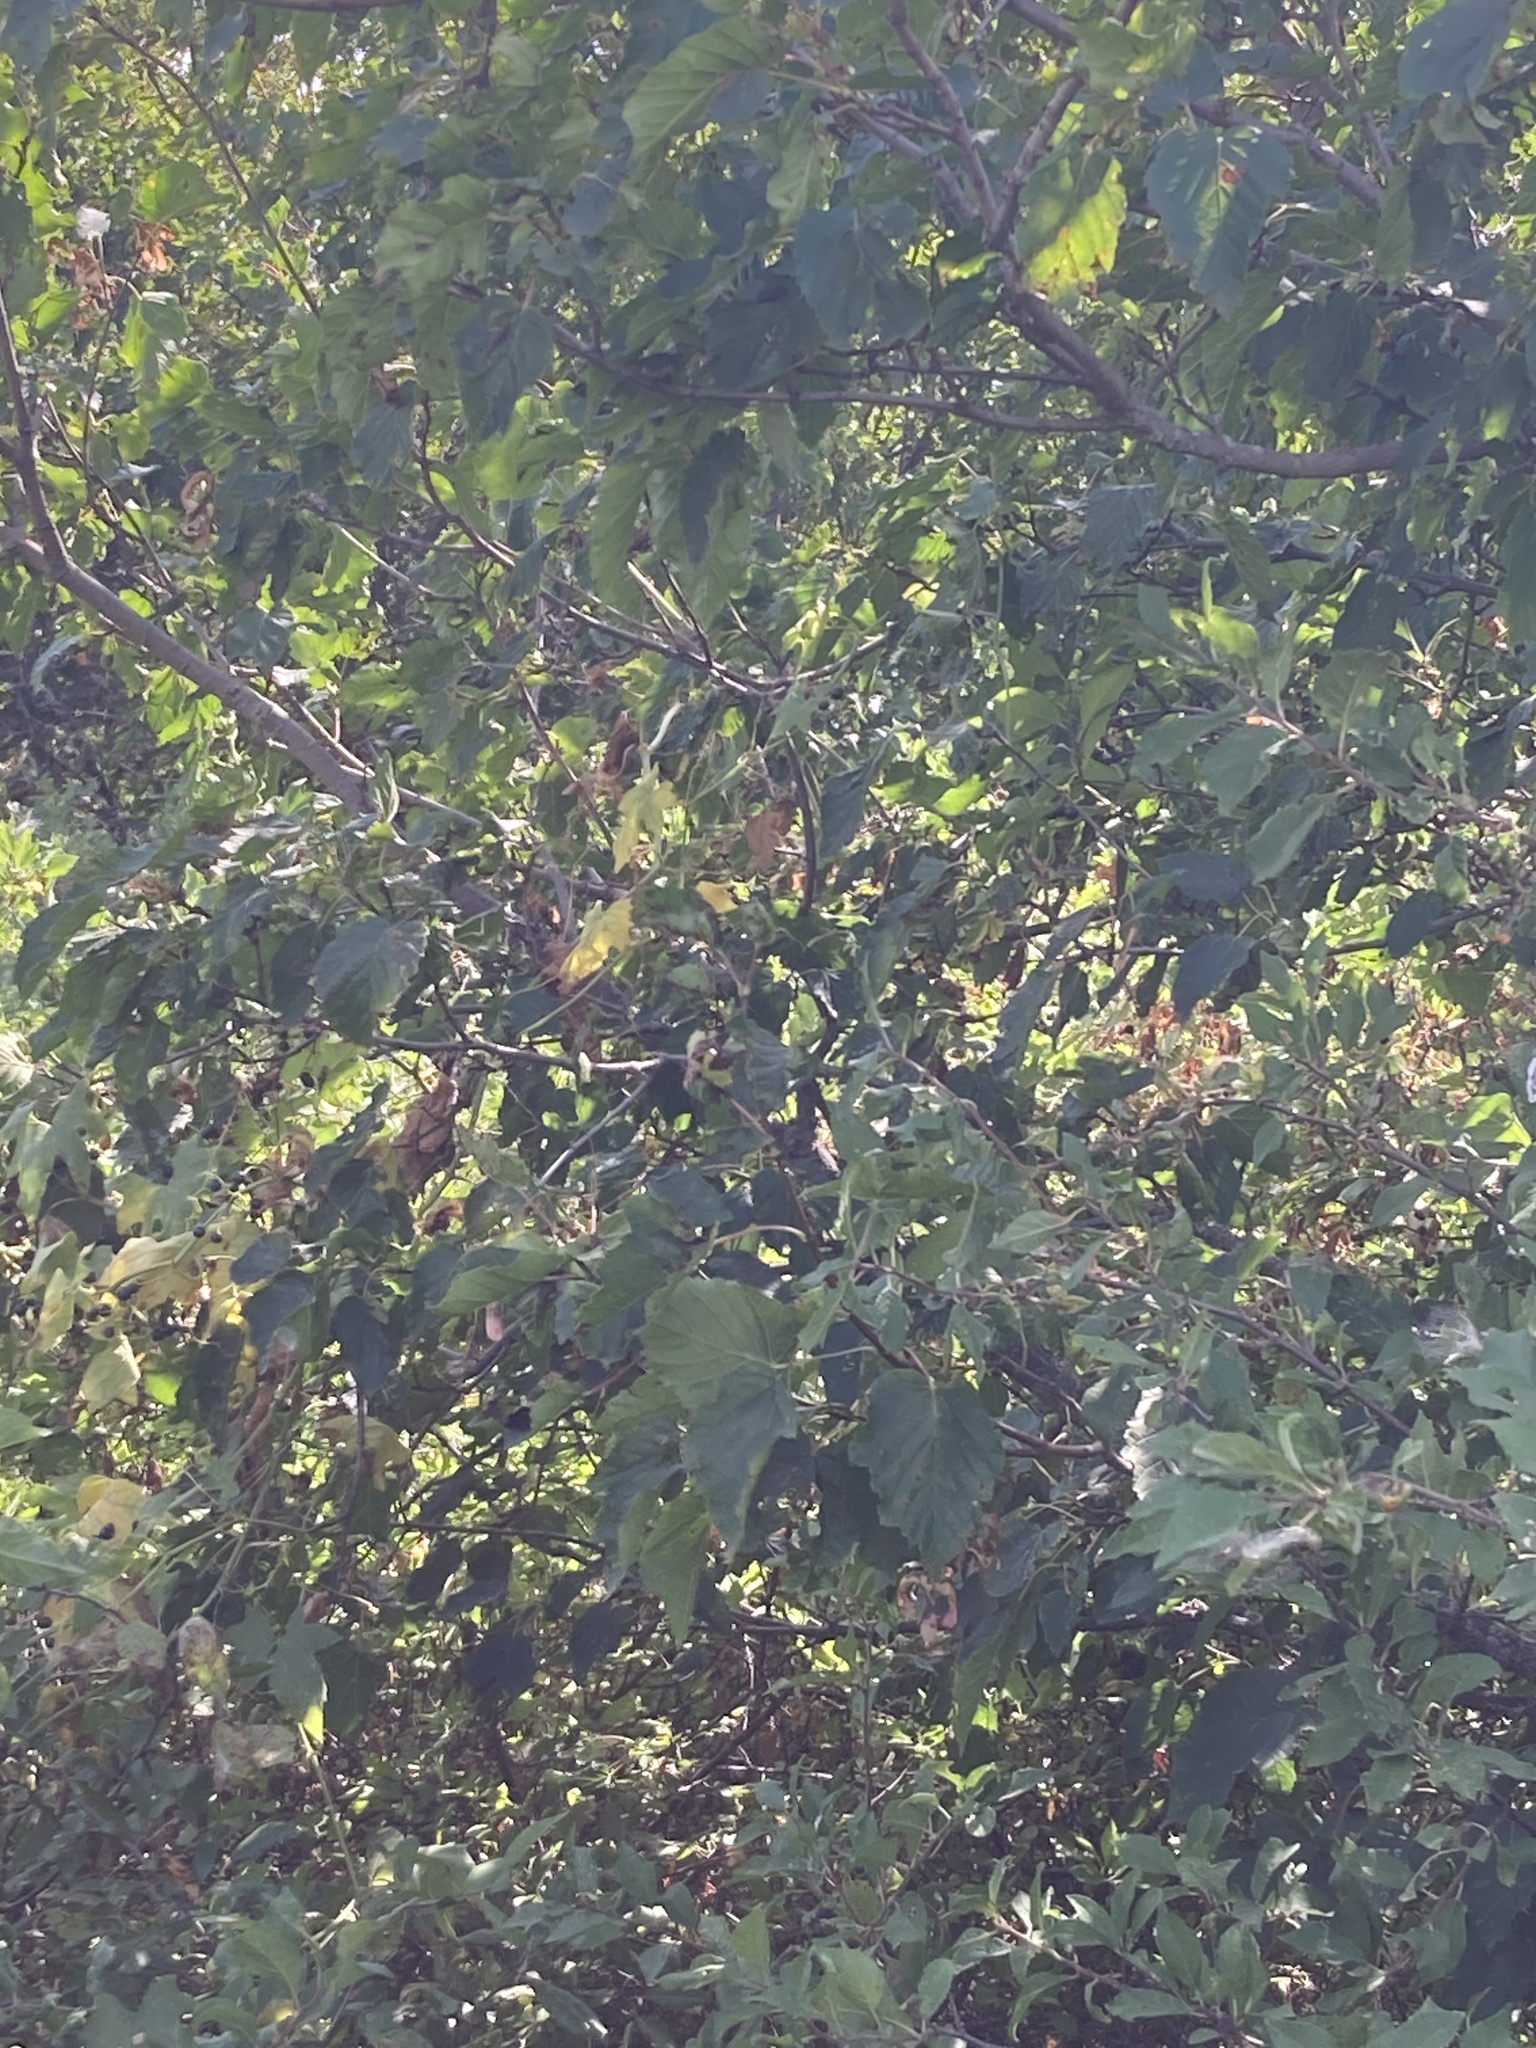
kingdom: Plantae
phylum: Tracheophyta
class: Magnoliopsida
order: Sapindales
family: Sapindaceae
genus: Acer
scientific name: Acer tataricum
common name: Tartar maple
